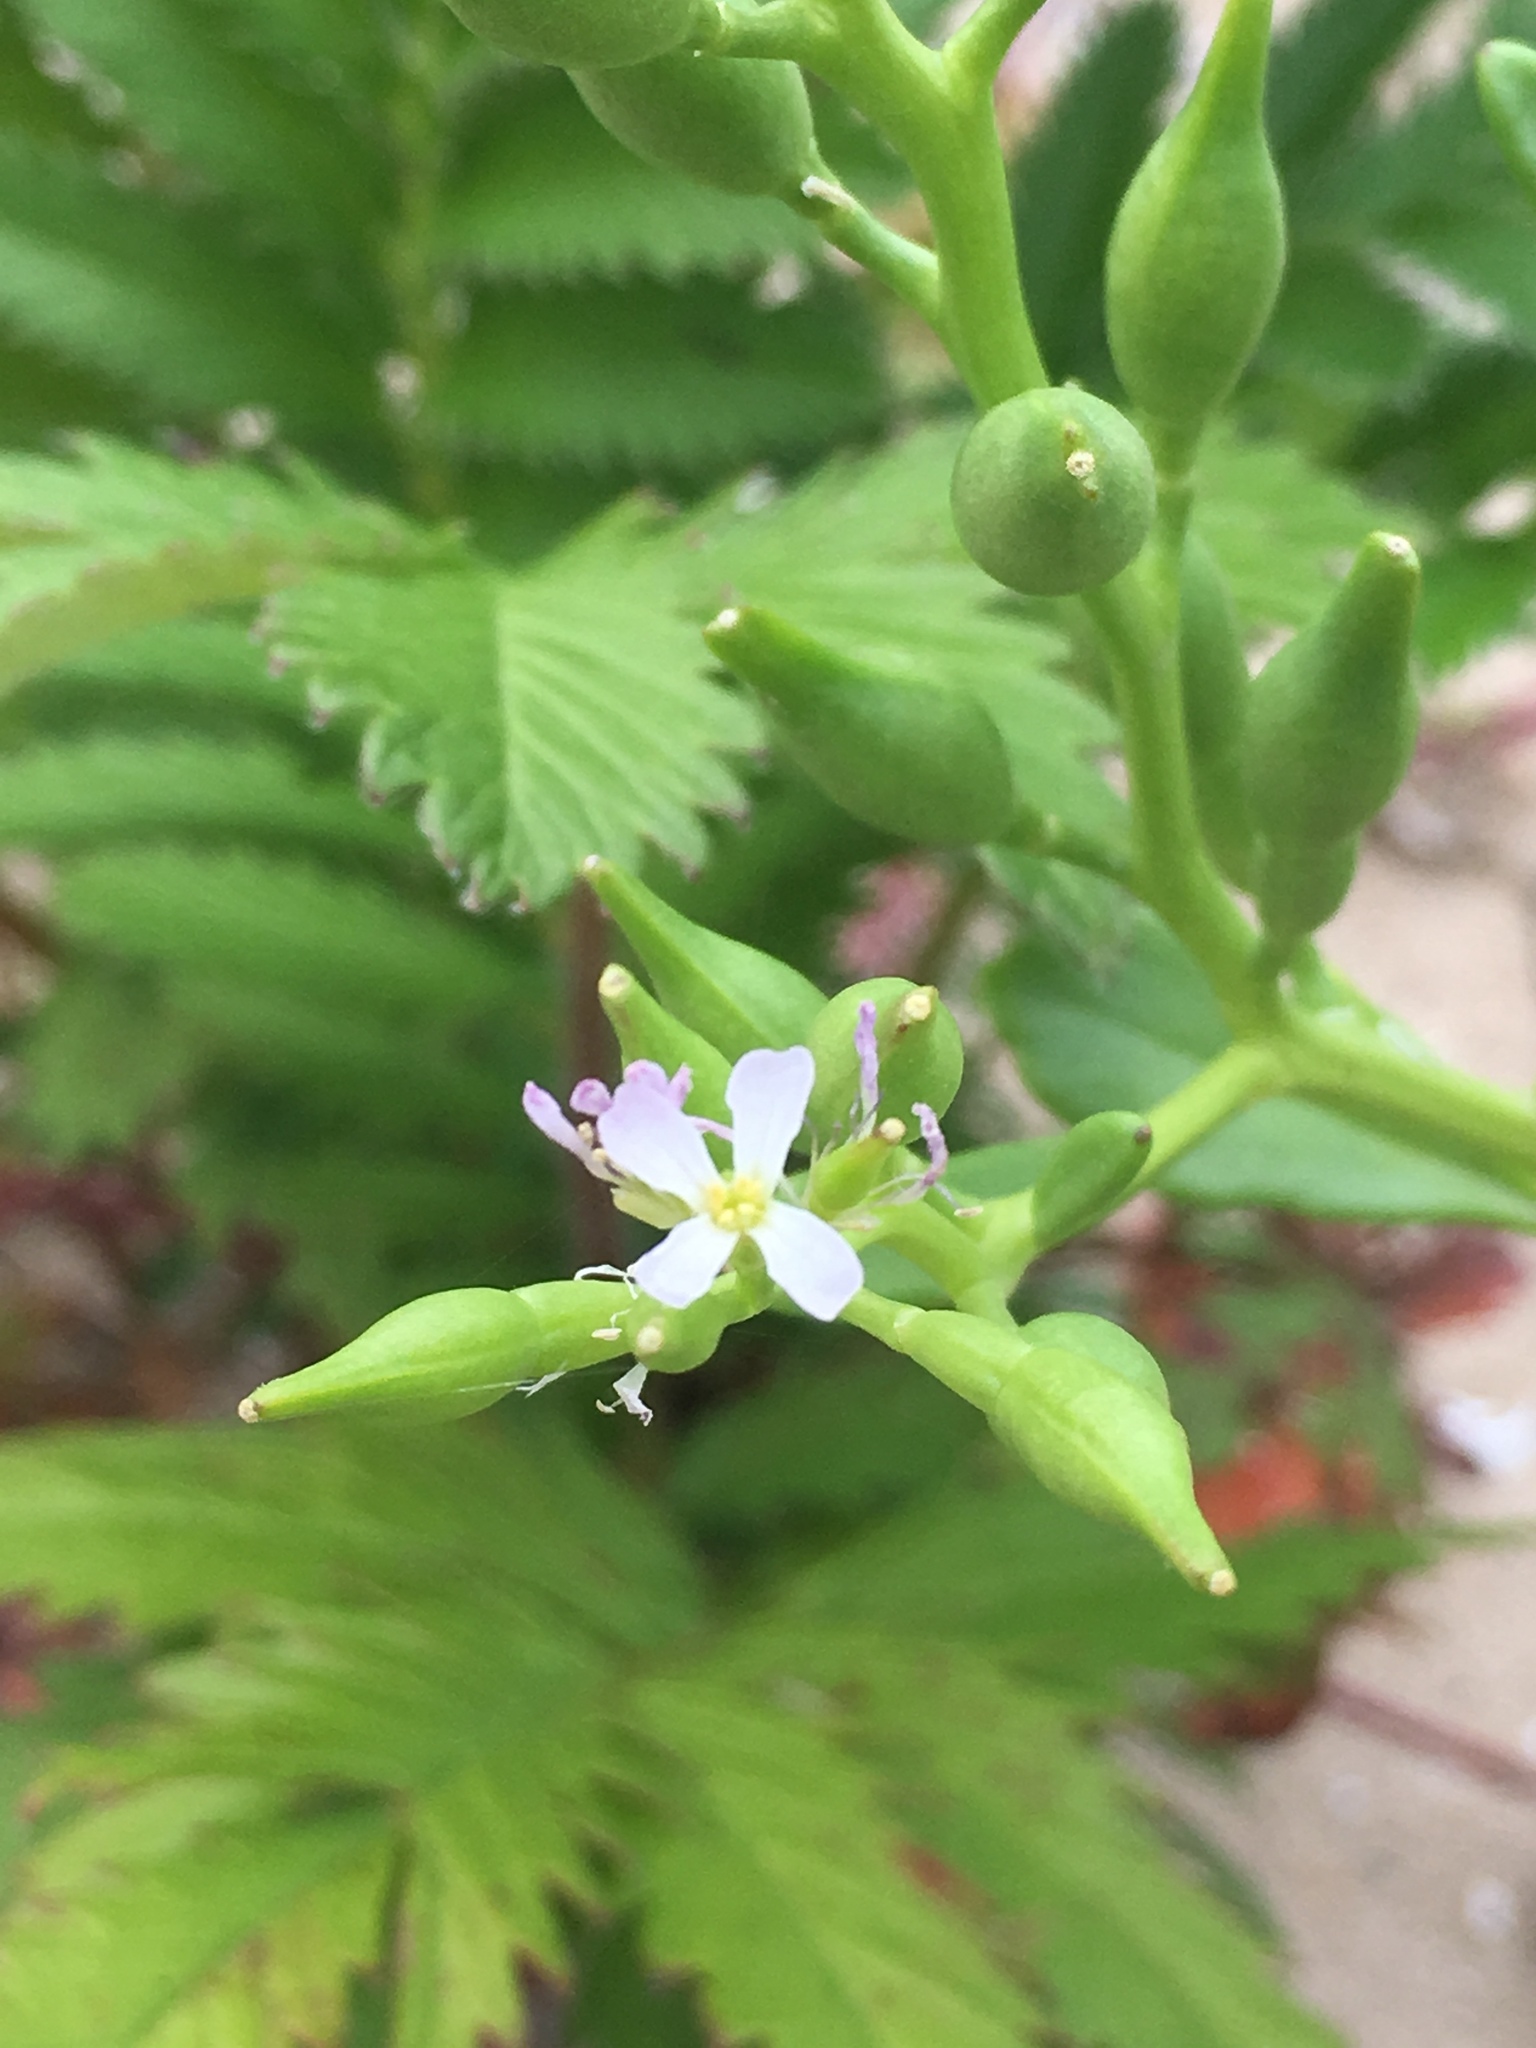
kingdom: Plantae
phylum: Tracheophyta
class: Magnoliopsida
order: Brassicales
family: Brassicaceae
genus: Cakile
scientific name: Cakile edentula
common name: American sea rocket
